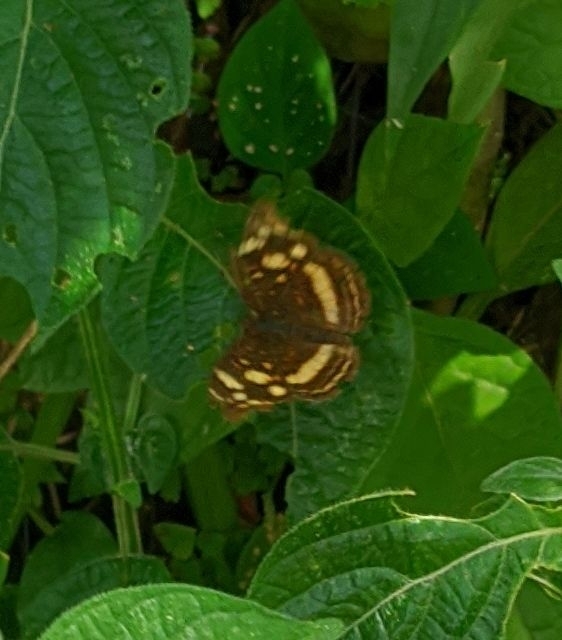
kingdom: Animalia
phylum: Arthropoda
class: Insecta
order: Lepidoptera
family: Nymphalidae
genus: Anthanassa
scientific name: Anthanassa drusilla
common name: Orange-patched crescent
